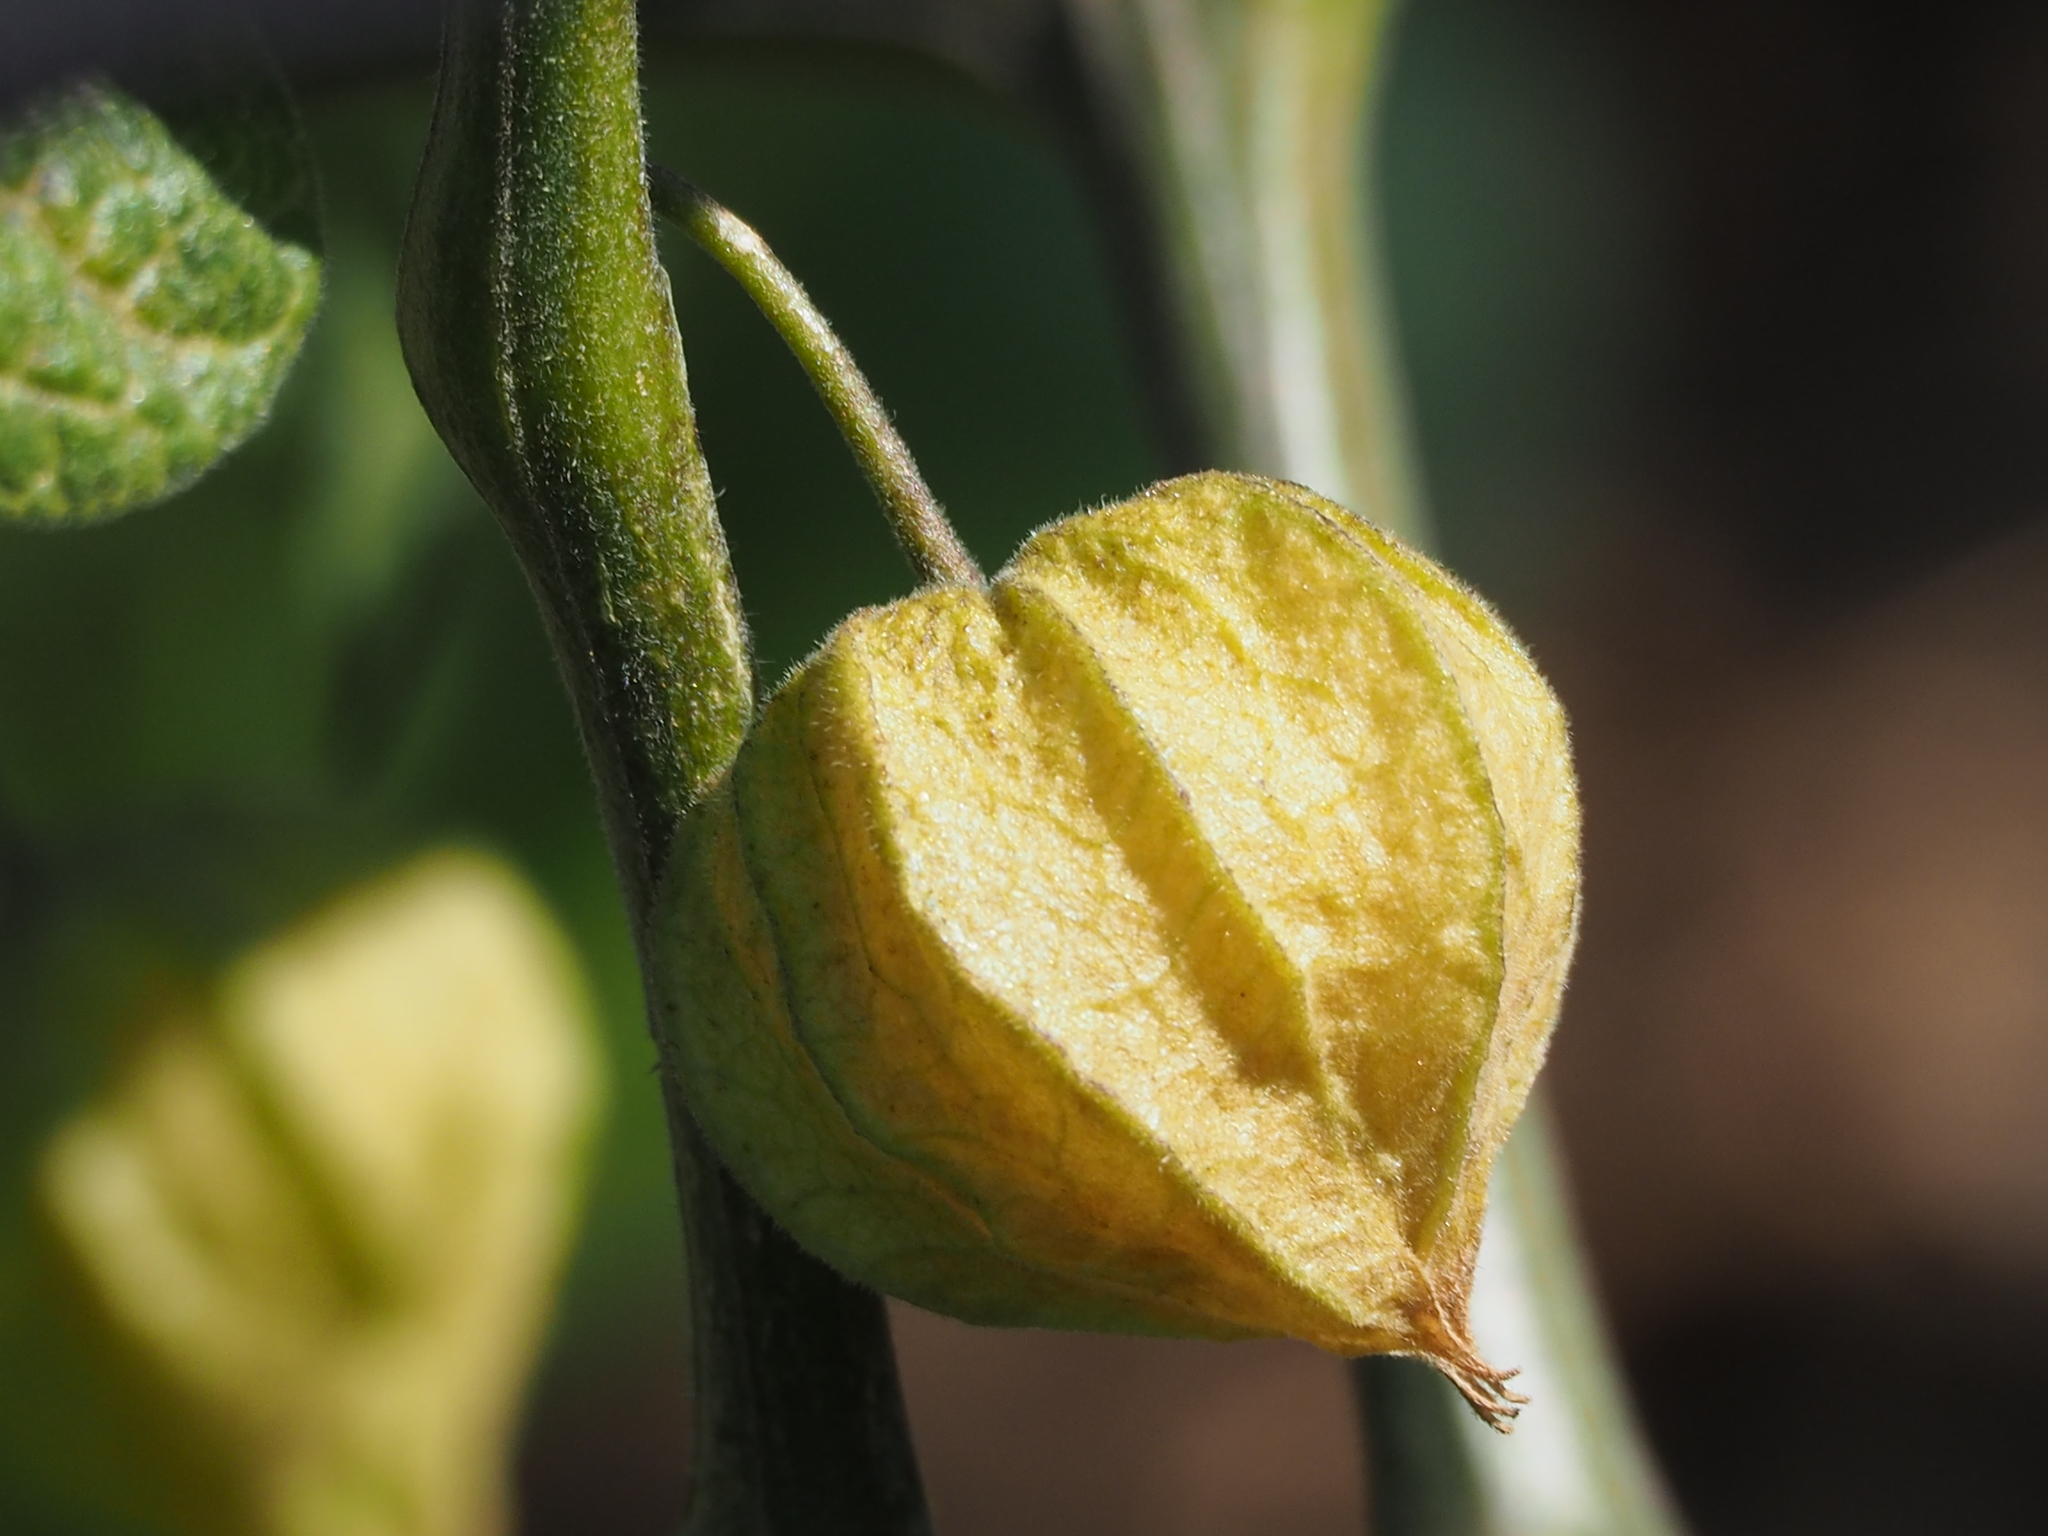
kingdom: Plantae
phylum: Tracheophyta
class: Magnoliopsida
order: Solanales
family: Solanaceae
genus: Physalis
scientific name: Physalis peruviana
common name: Cape-gooseberry
